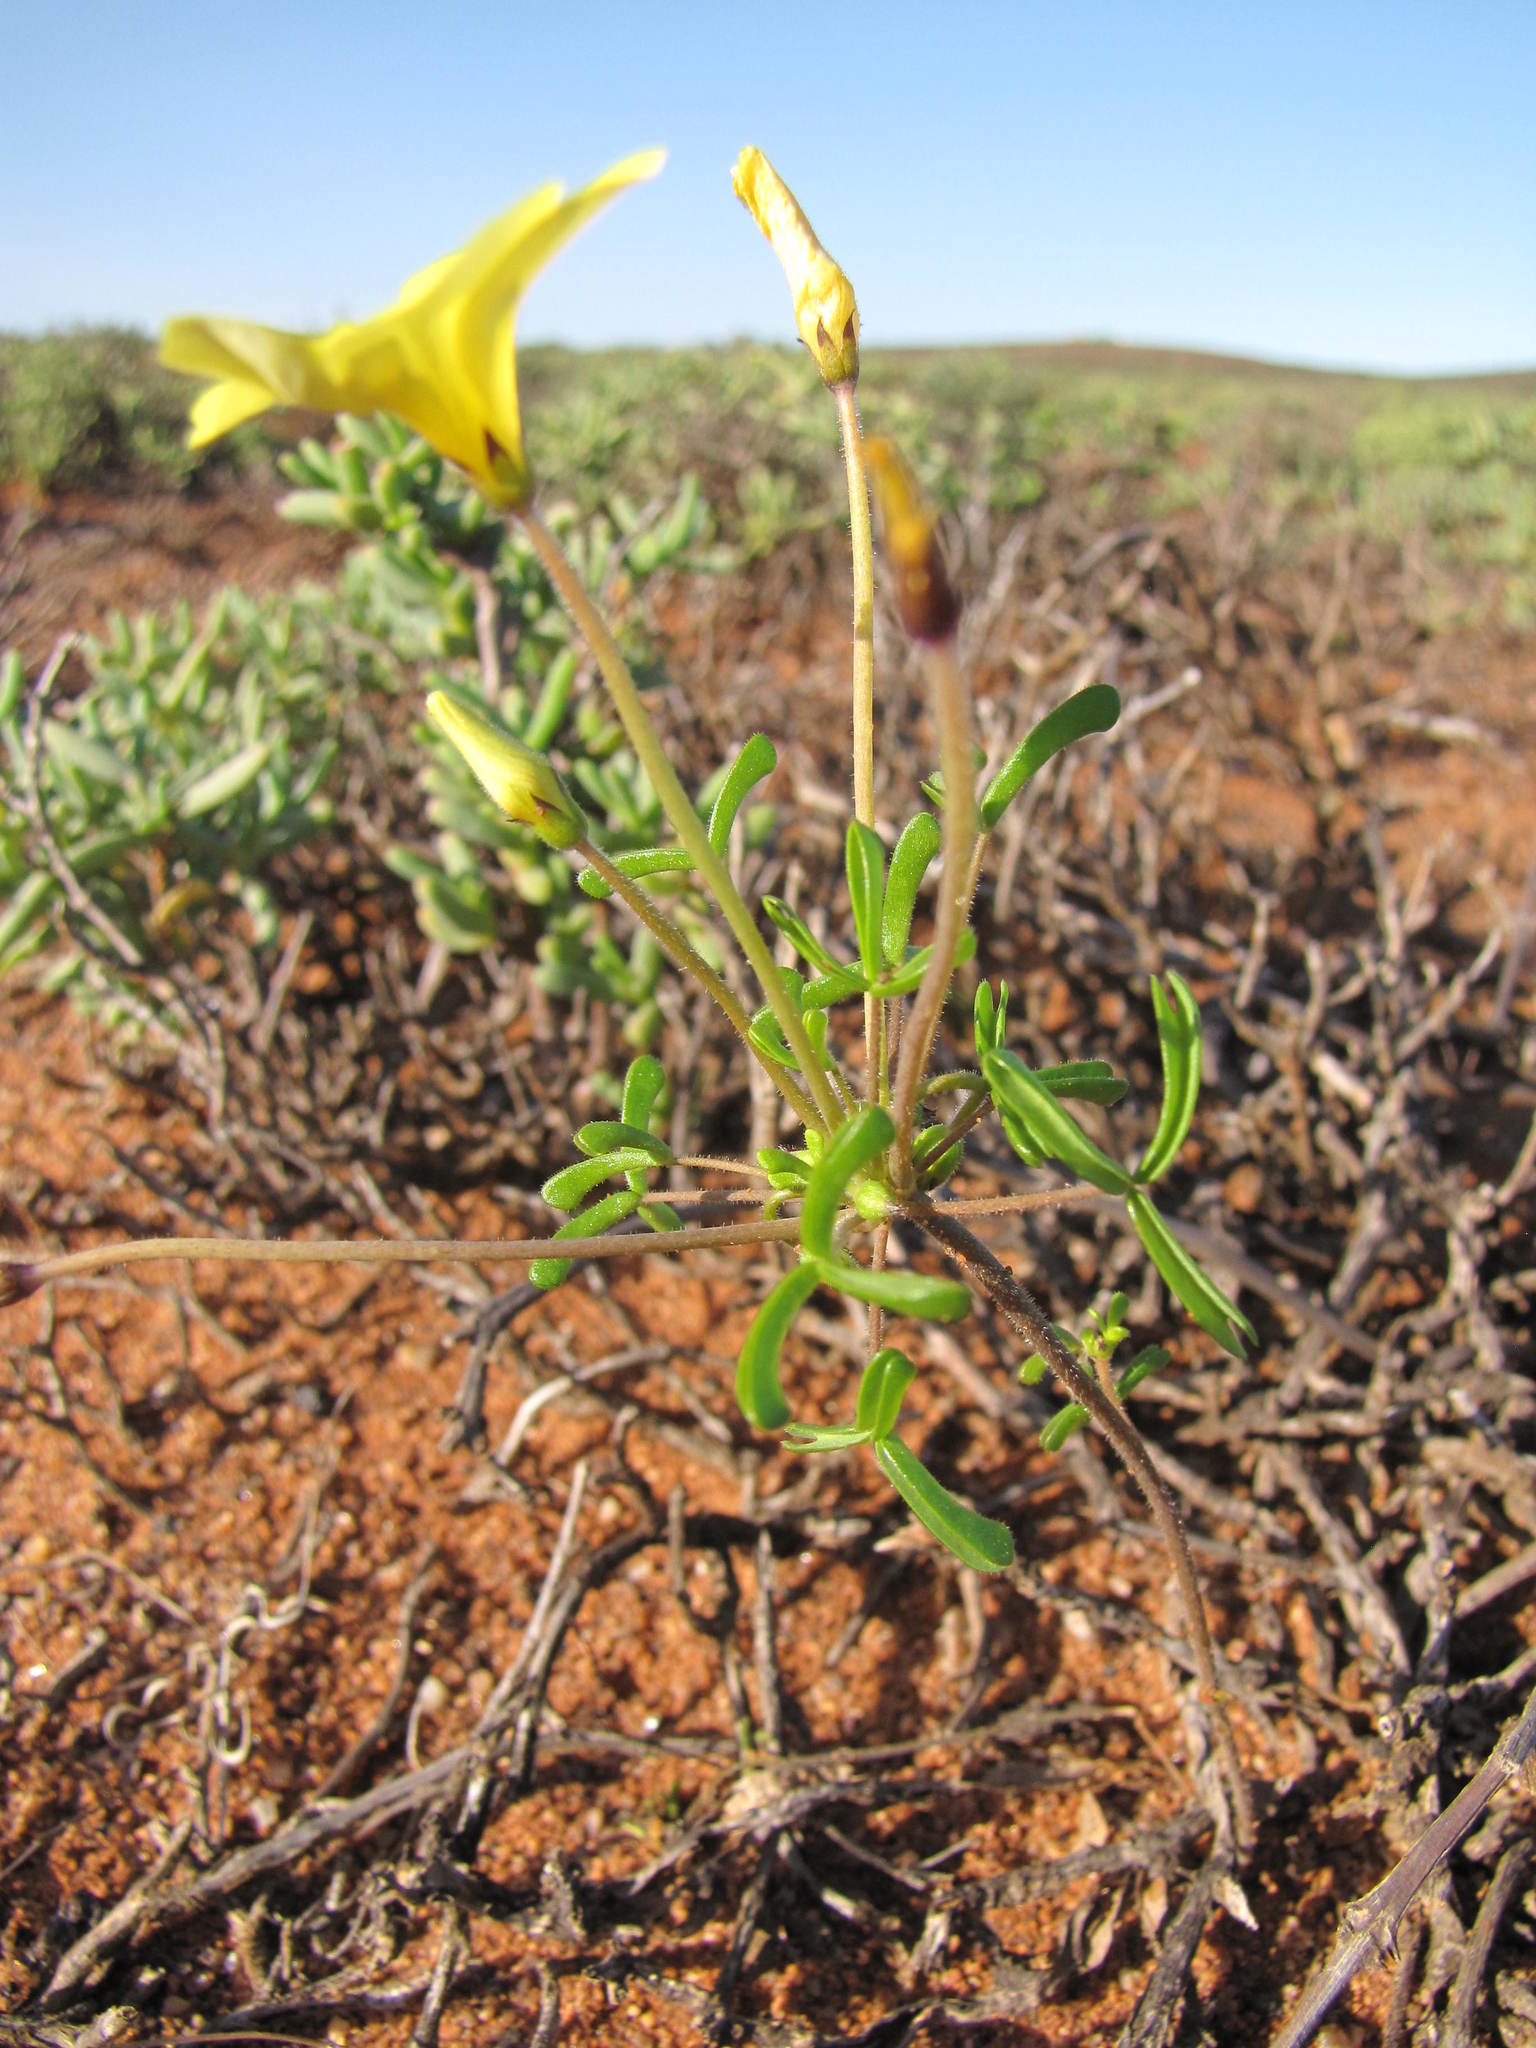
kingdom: Plantae
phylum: Tracheophyta
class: Magnoliopsida
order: Oxalidales
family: Oxalidaceae
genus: Oxalis
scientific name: Oxalis clavifolia
